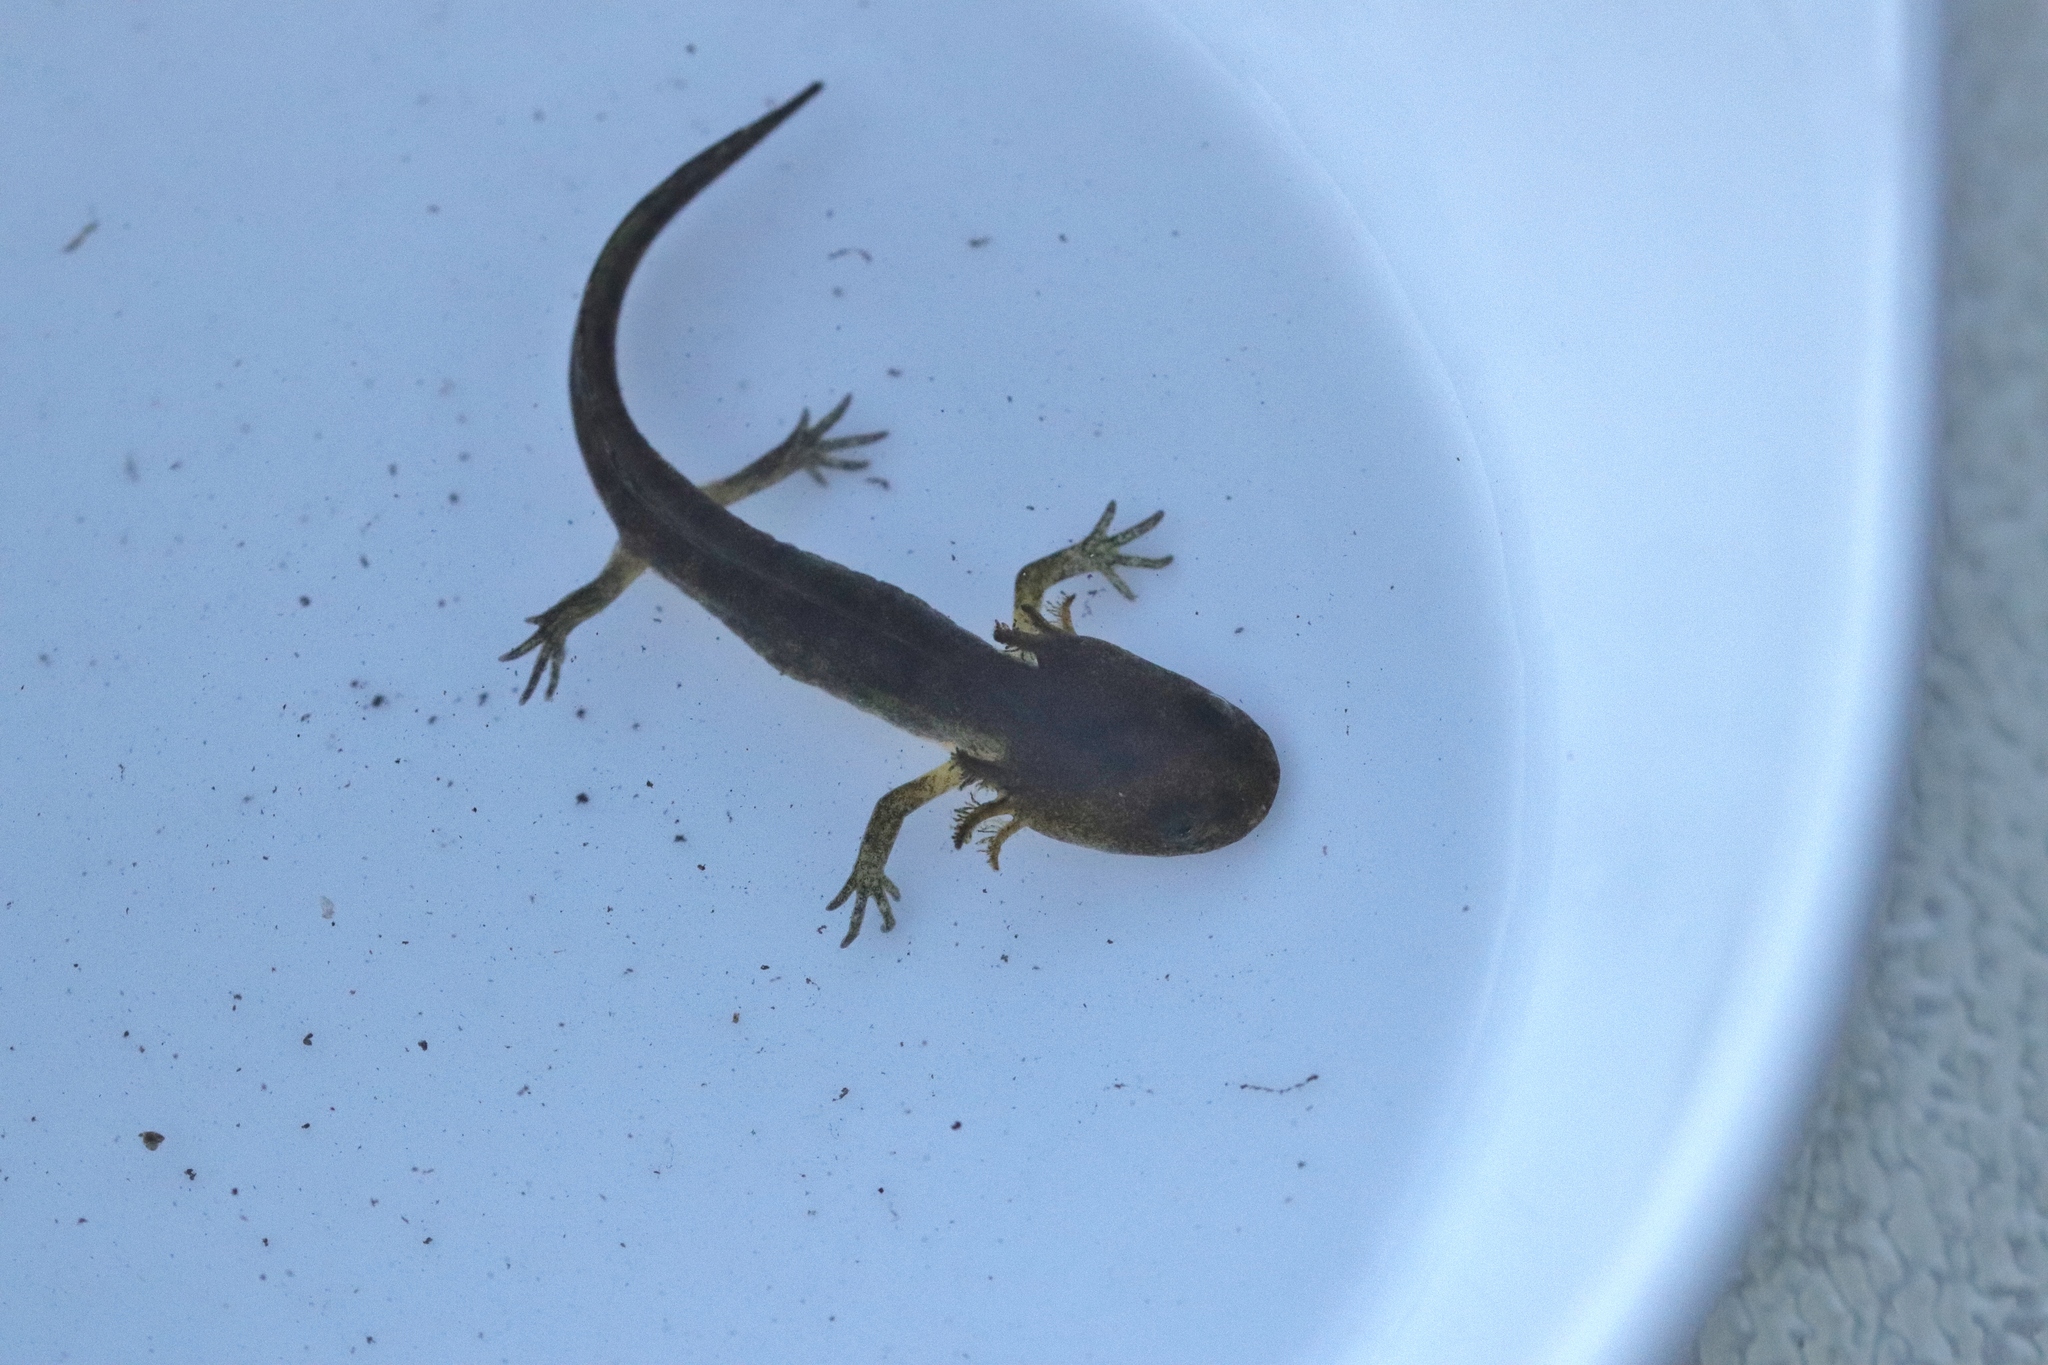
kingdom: Animalia
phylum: Chordata
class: Amphibia
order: Caudata
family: Ambystomatidae
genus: Ambystoma
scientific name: Ambystoma macrodactylum
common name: Long-toed salamander
